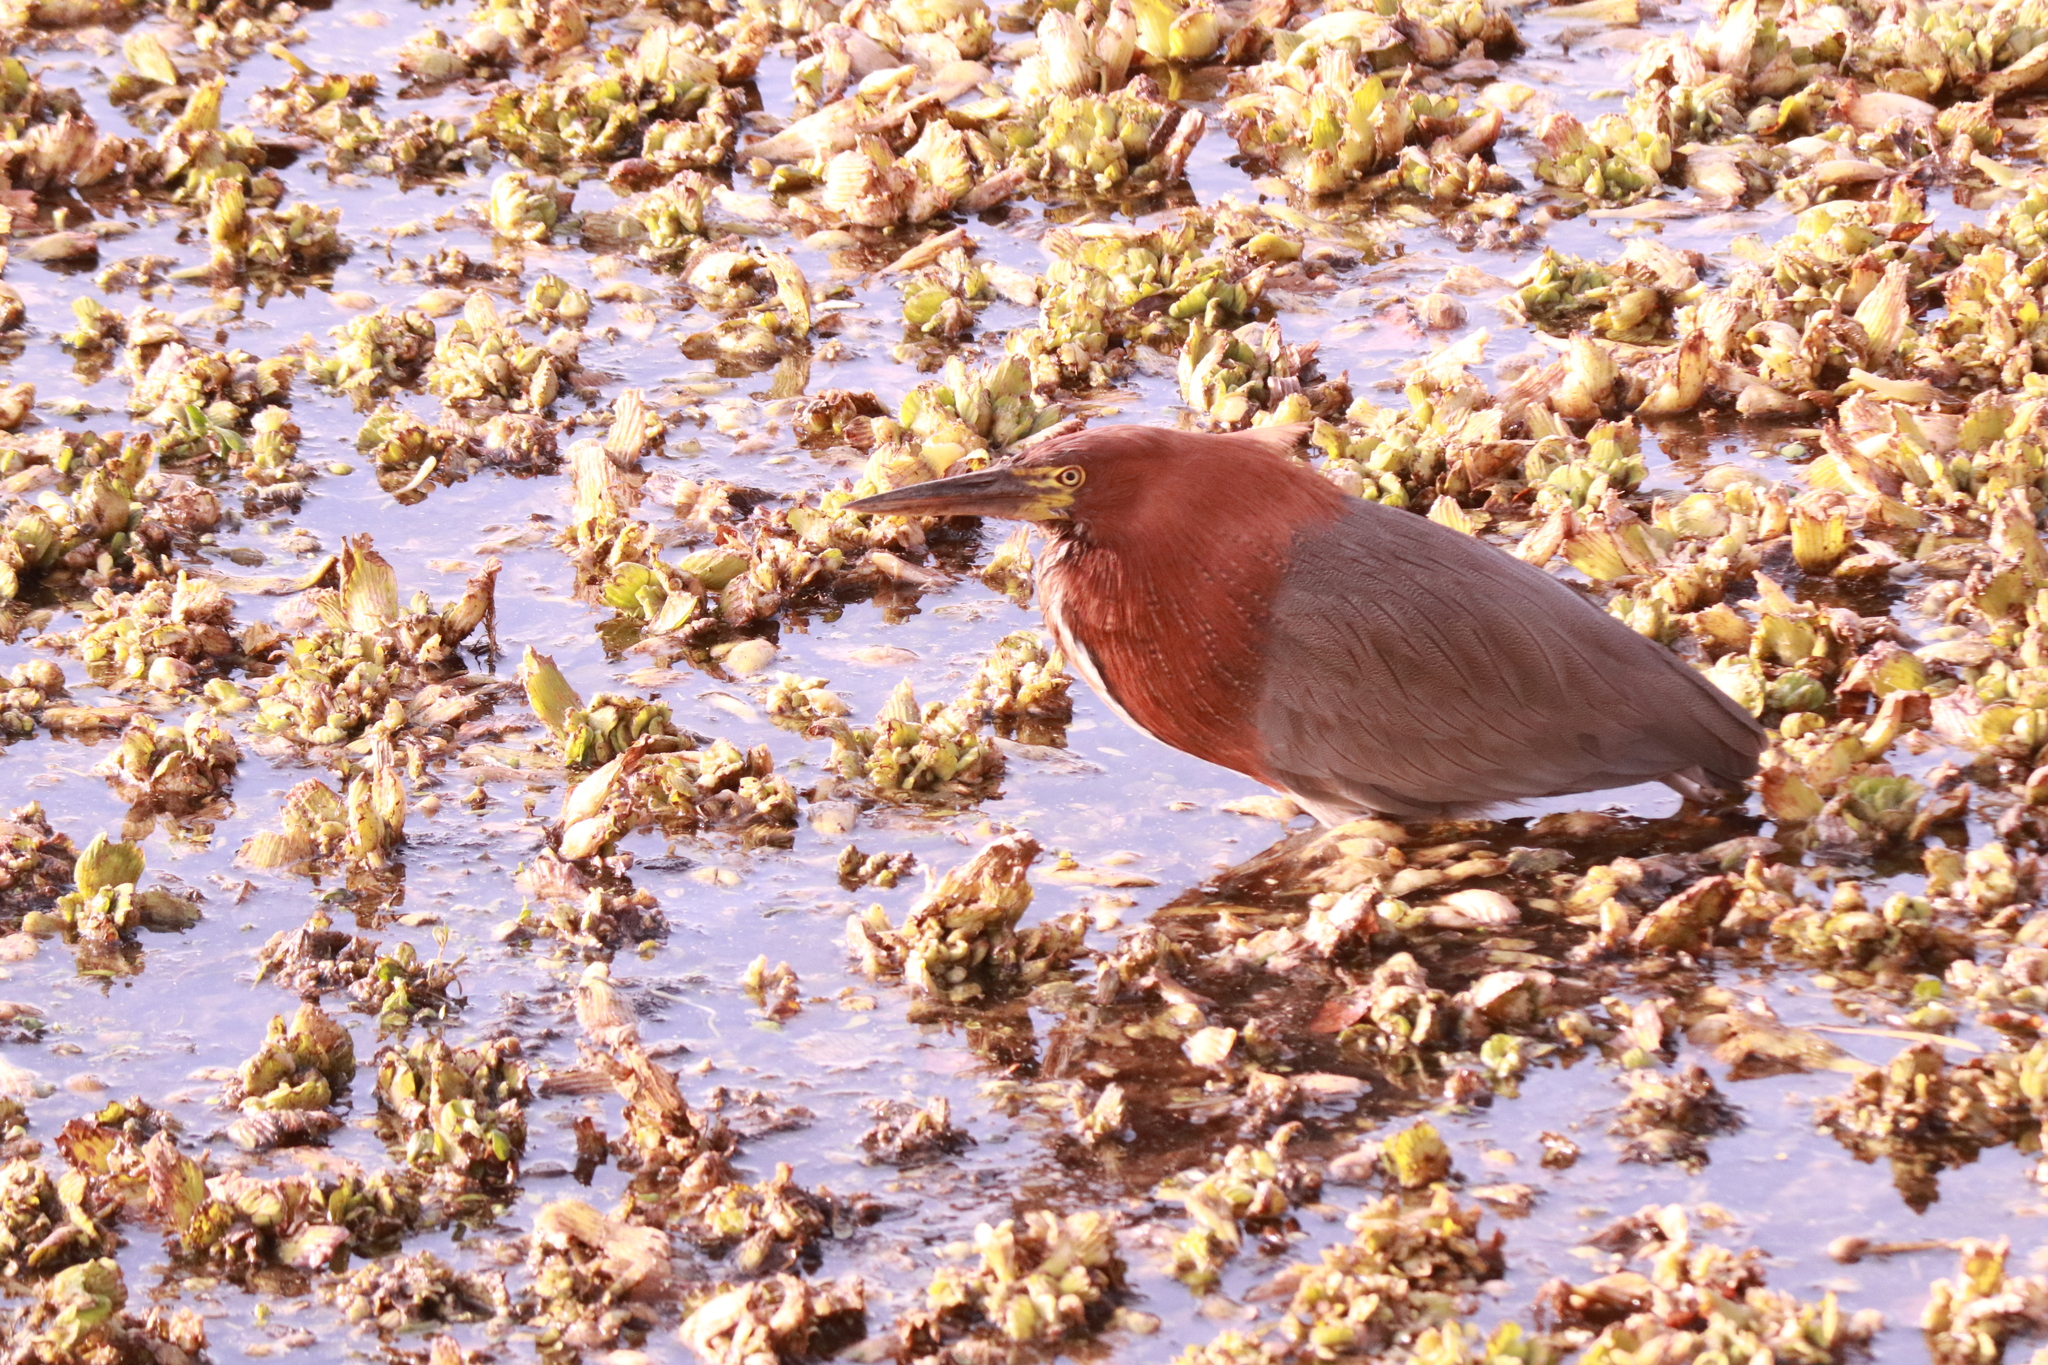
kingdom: Animalia
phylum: Chordata
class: Aves
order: Pelecaniformes
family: Ardeidae
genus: Tigrisoma
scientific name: Tigrisoma lineatum
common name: Rufescent tiger-heron
